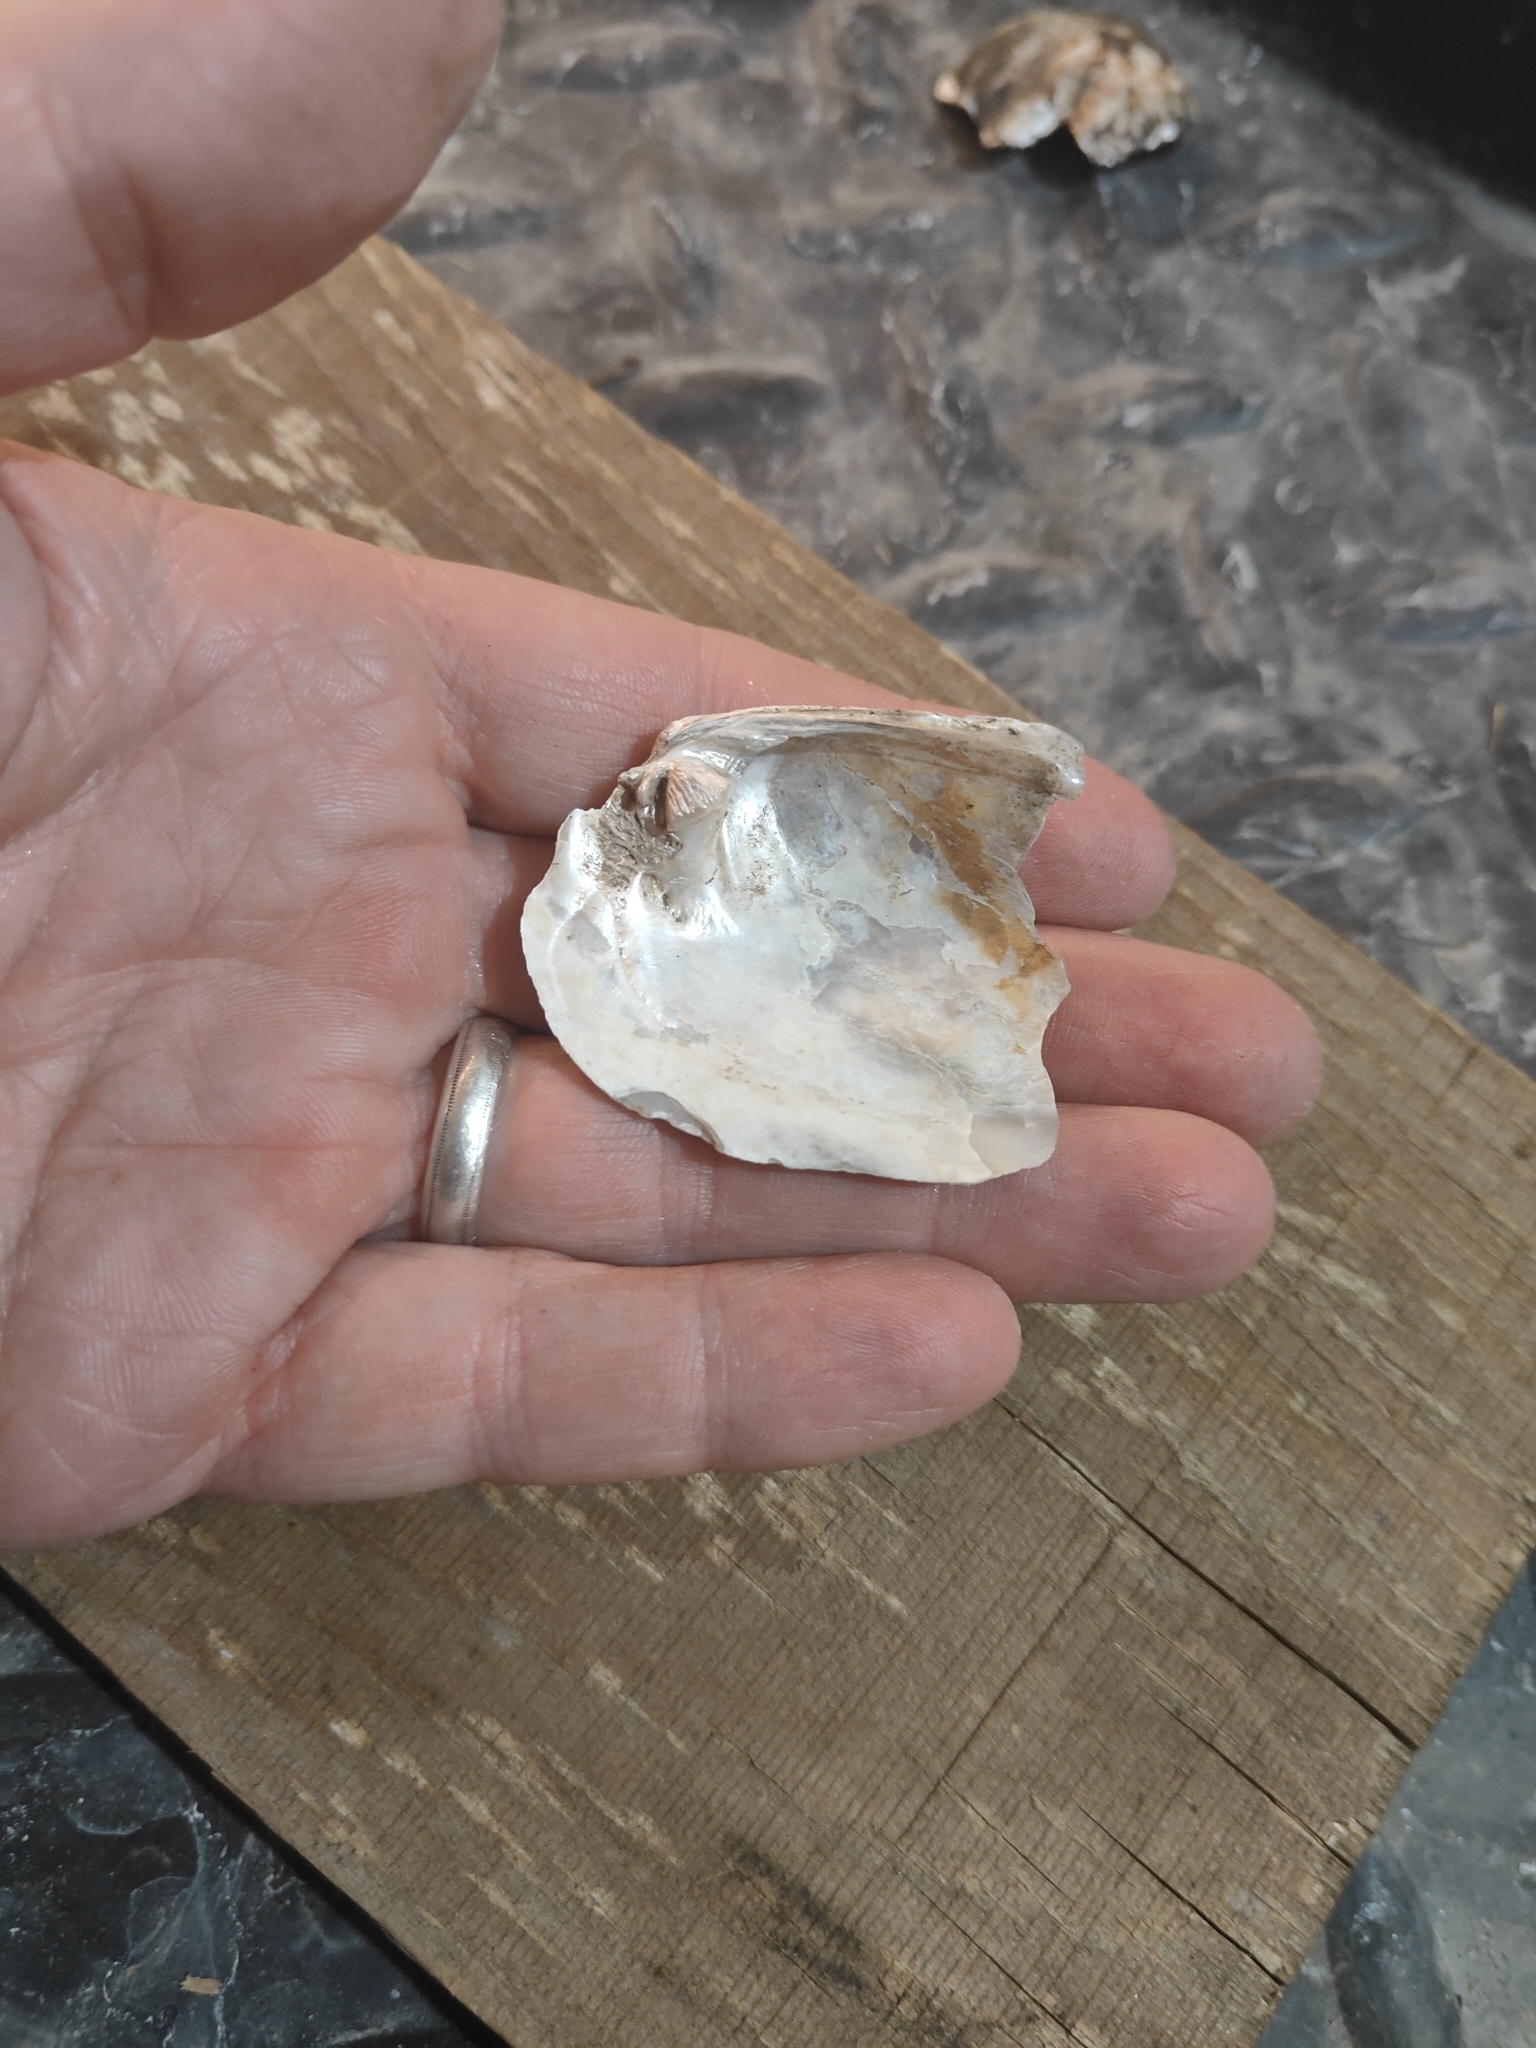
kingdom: Animalia
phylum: Mollusca
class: Bivalvia
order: Unionida
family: Unionidae
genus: Amblema
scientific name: Amblema plicata
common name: Threeridge
